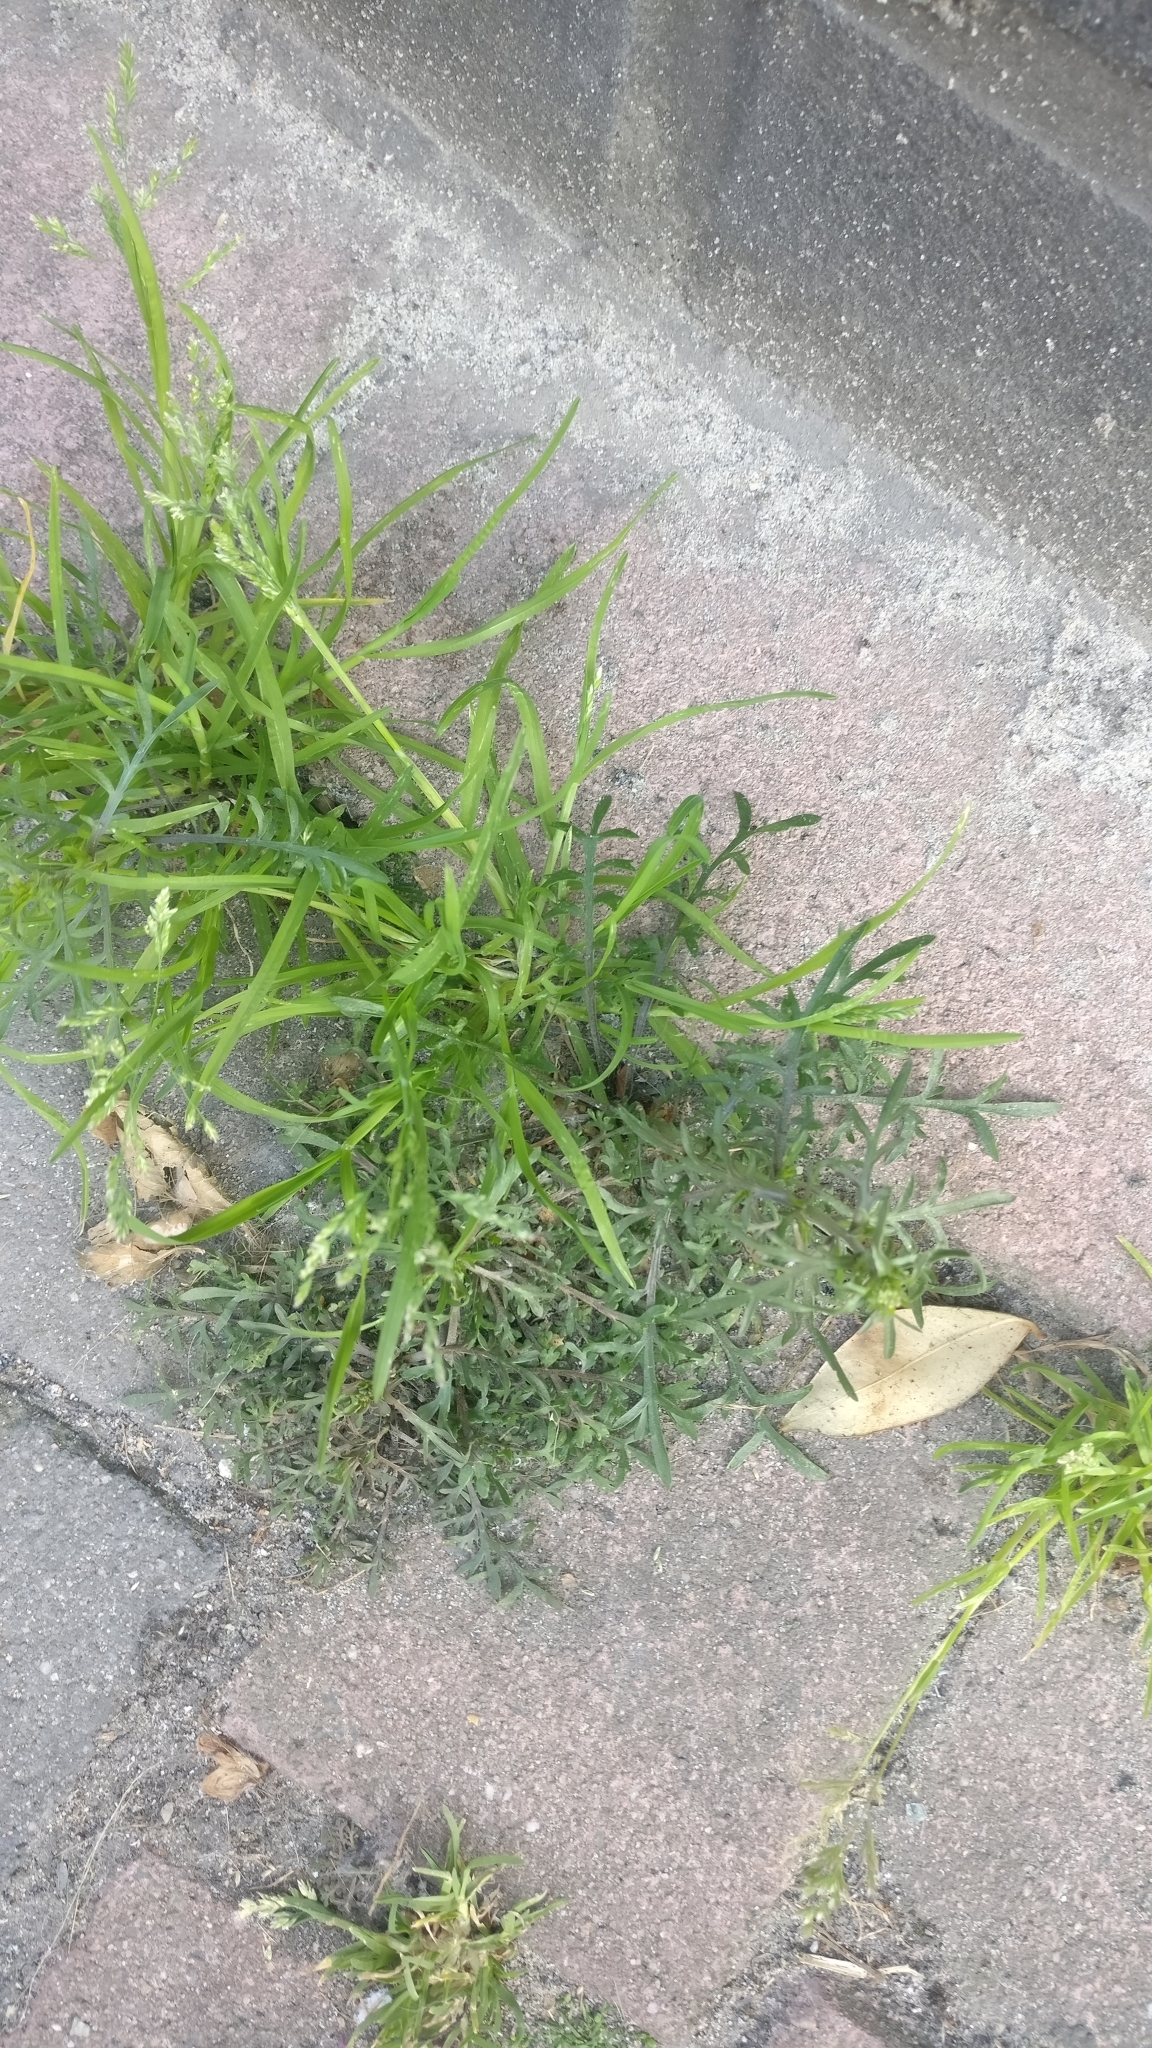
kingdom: Plantae
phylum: Tracheophyta
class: Magnoliopsida
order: Brassicales
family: Brassicaceae
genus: Lepidium
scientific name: Lepidium ruderale
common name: Narrow-leaved pepperwort
